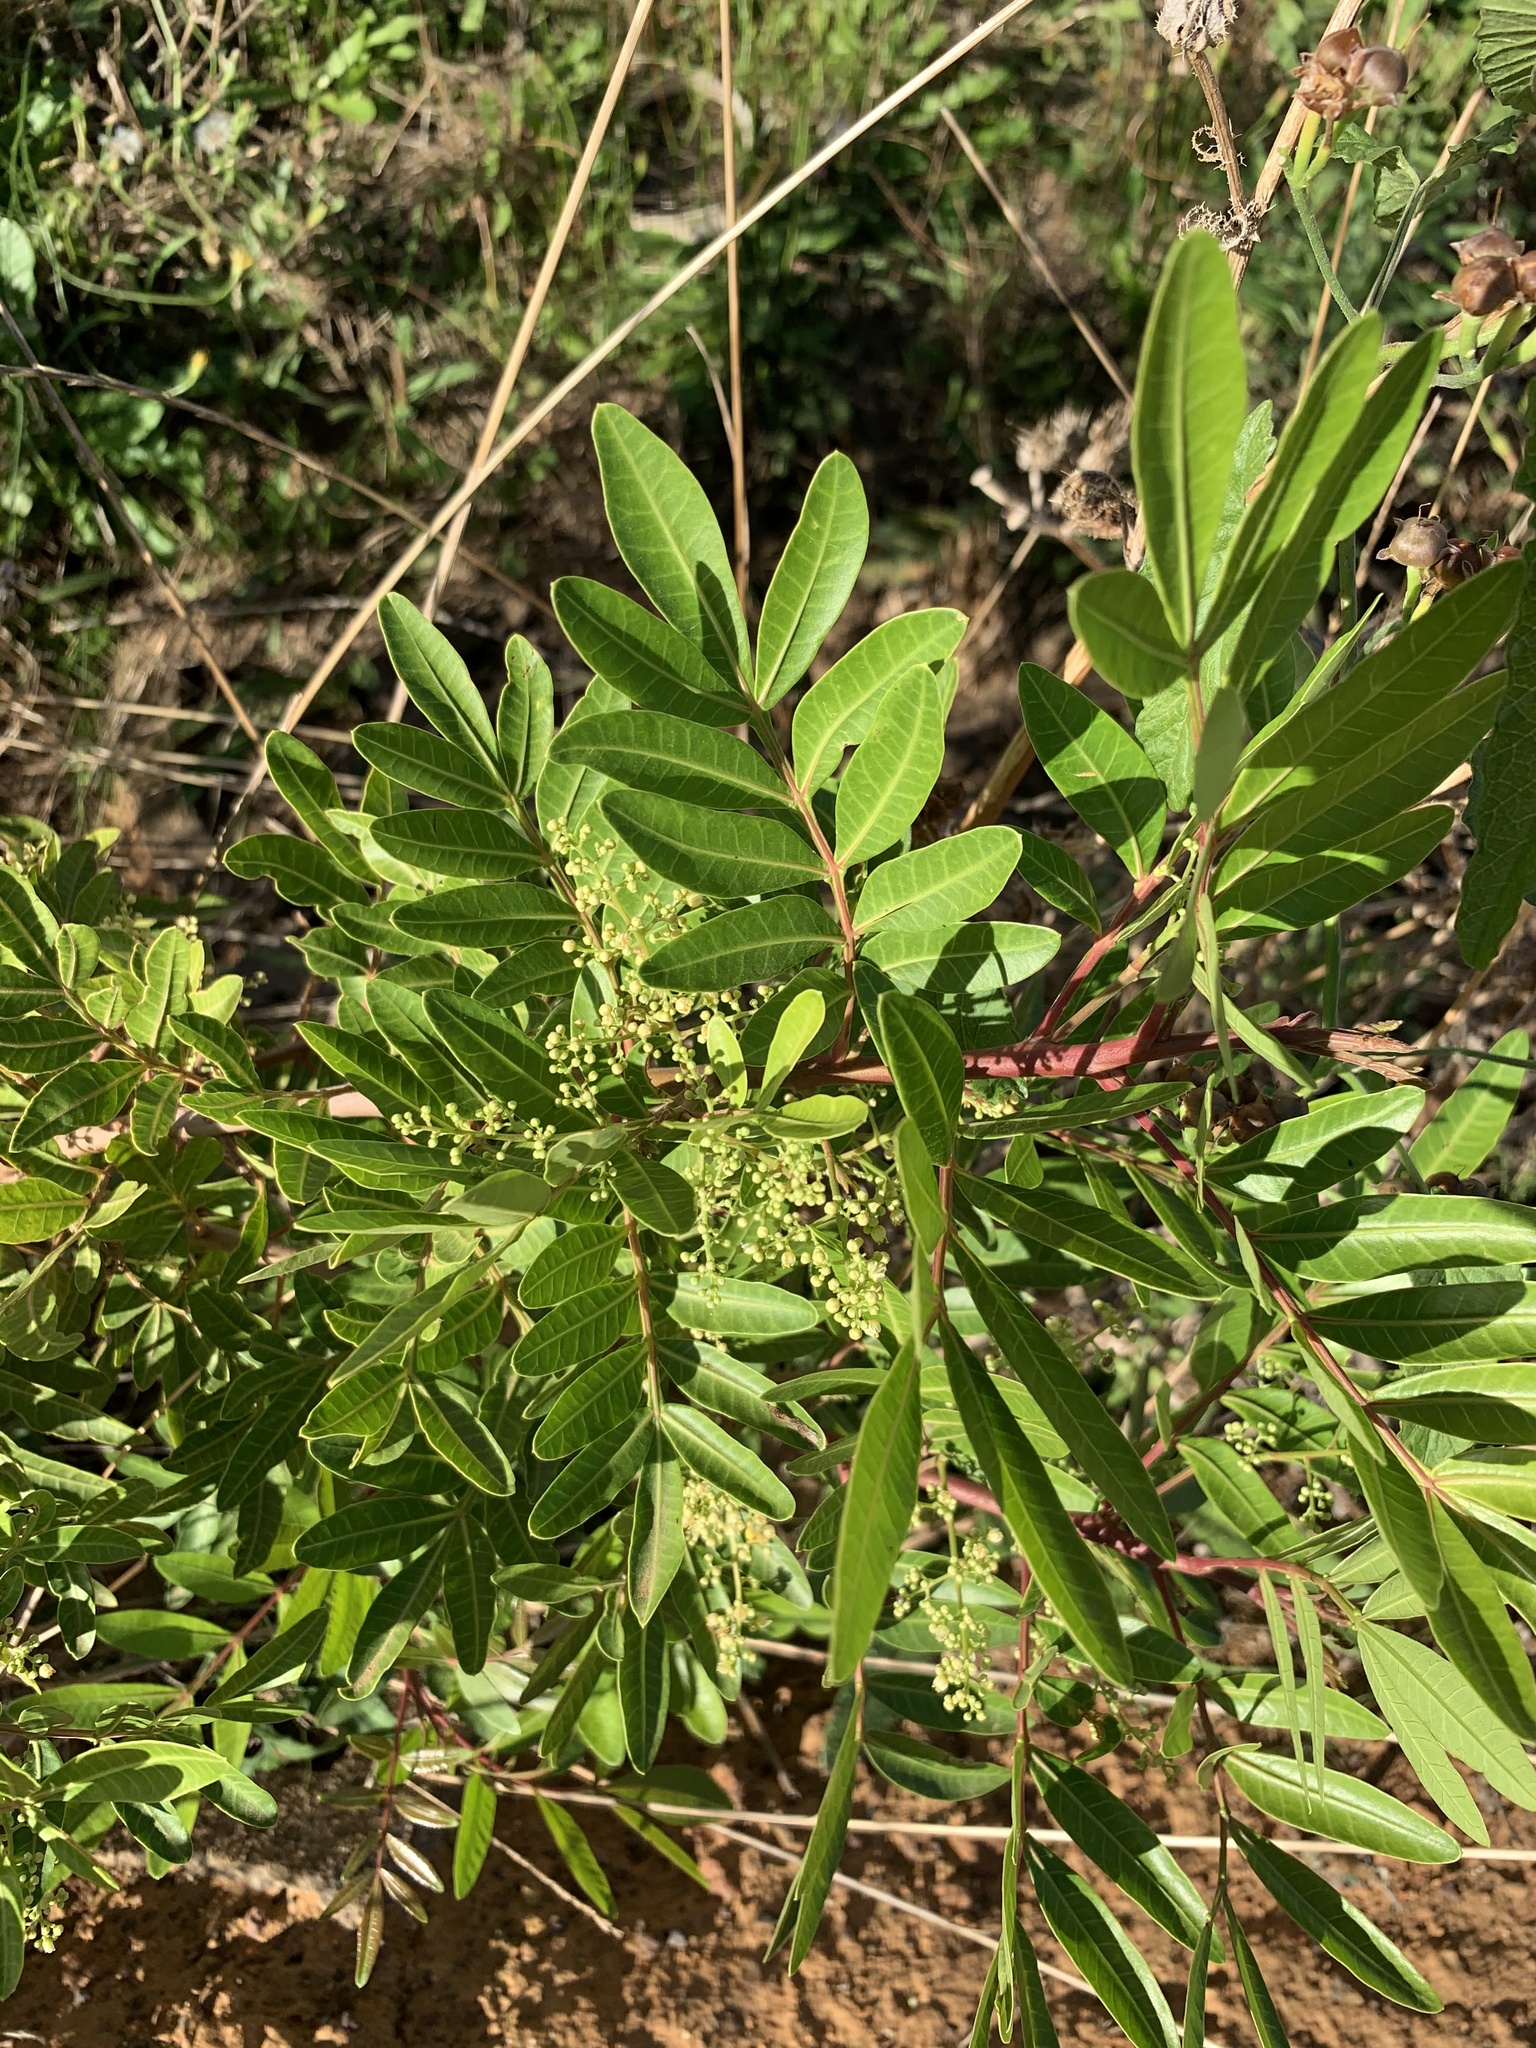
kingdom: Plantae
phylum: Tracheophyta
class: Magnoliopsida
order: Sapindales
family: Anacardiaceae
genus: Schinus
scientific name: Schinus terebinthifolia
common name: Brazilian peppertree
